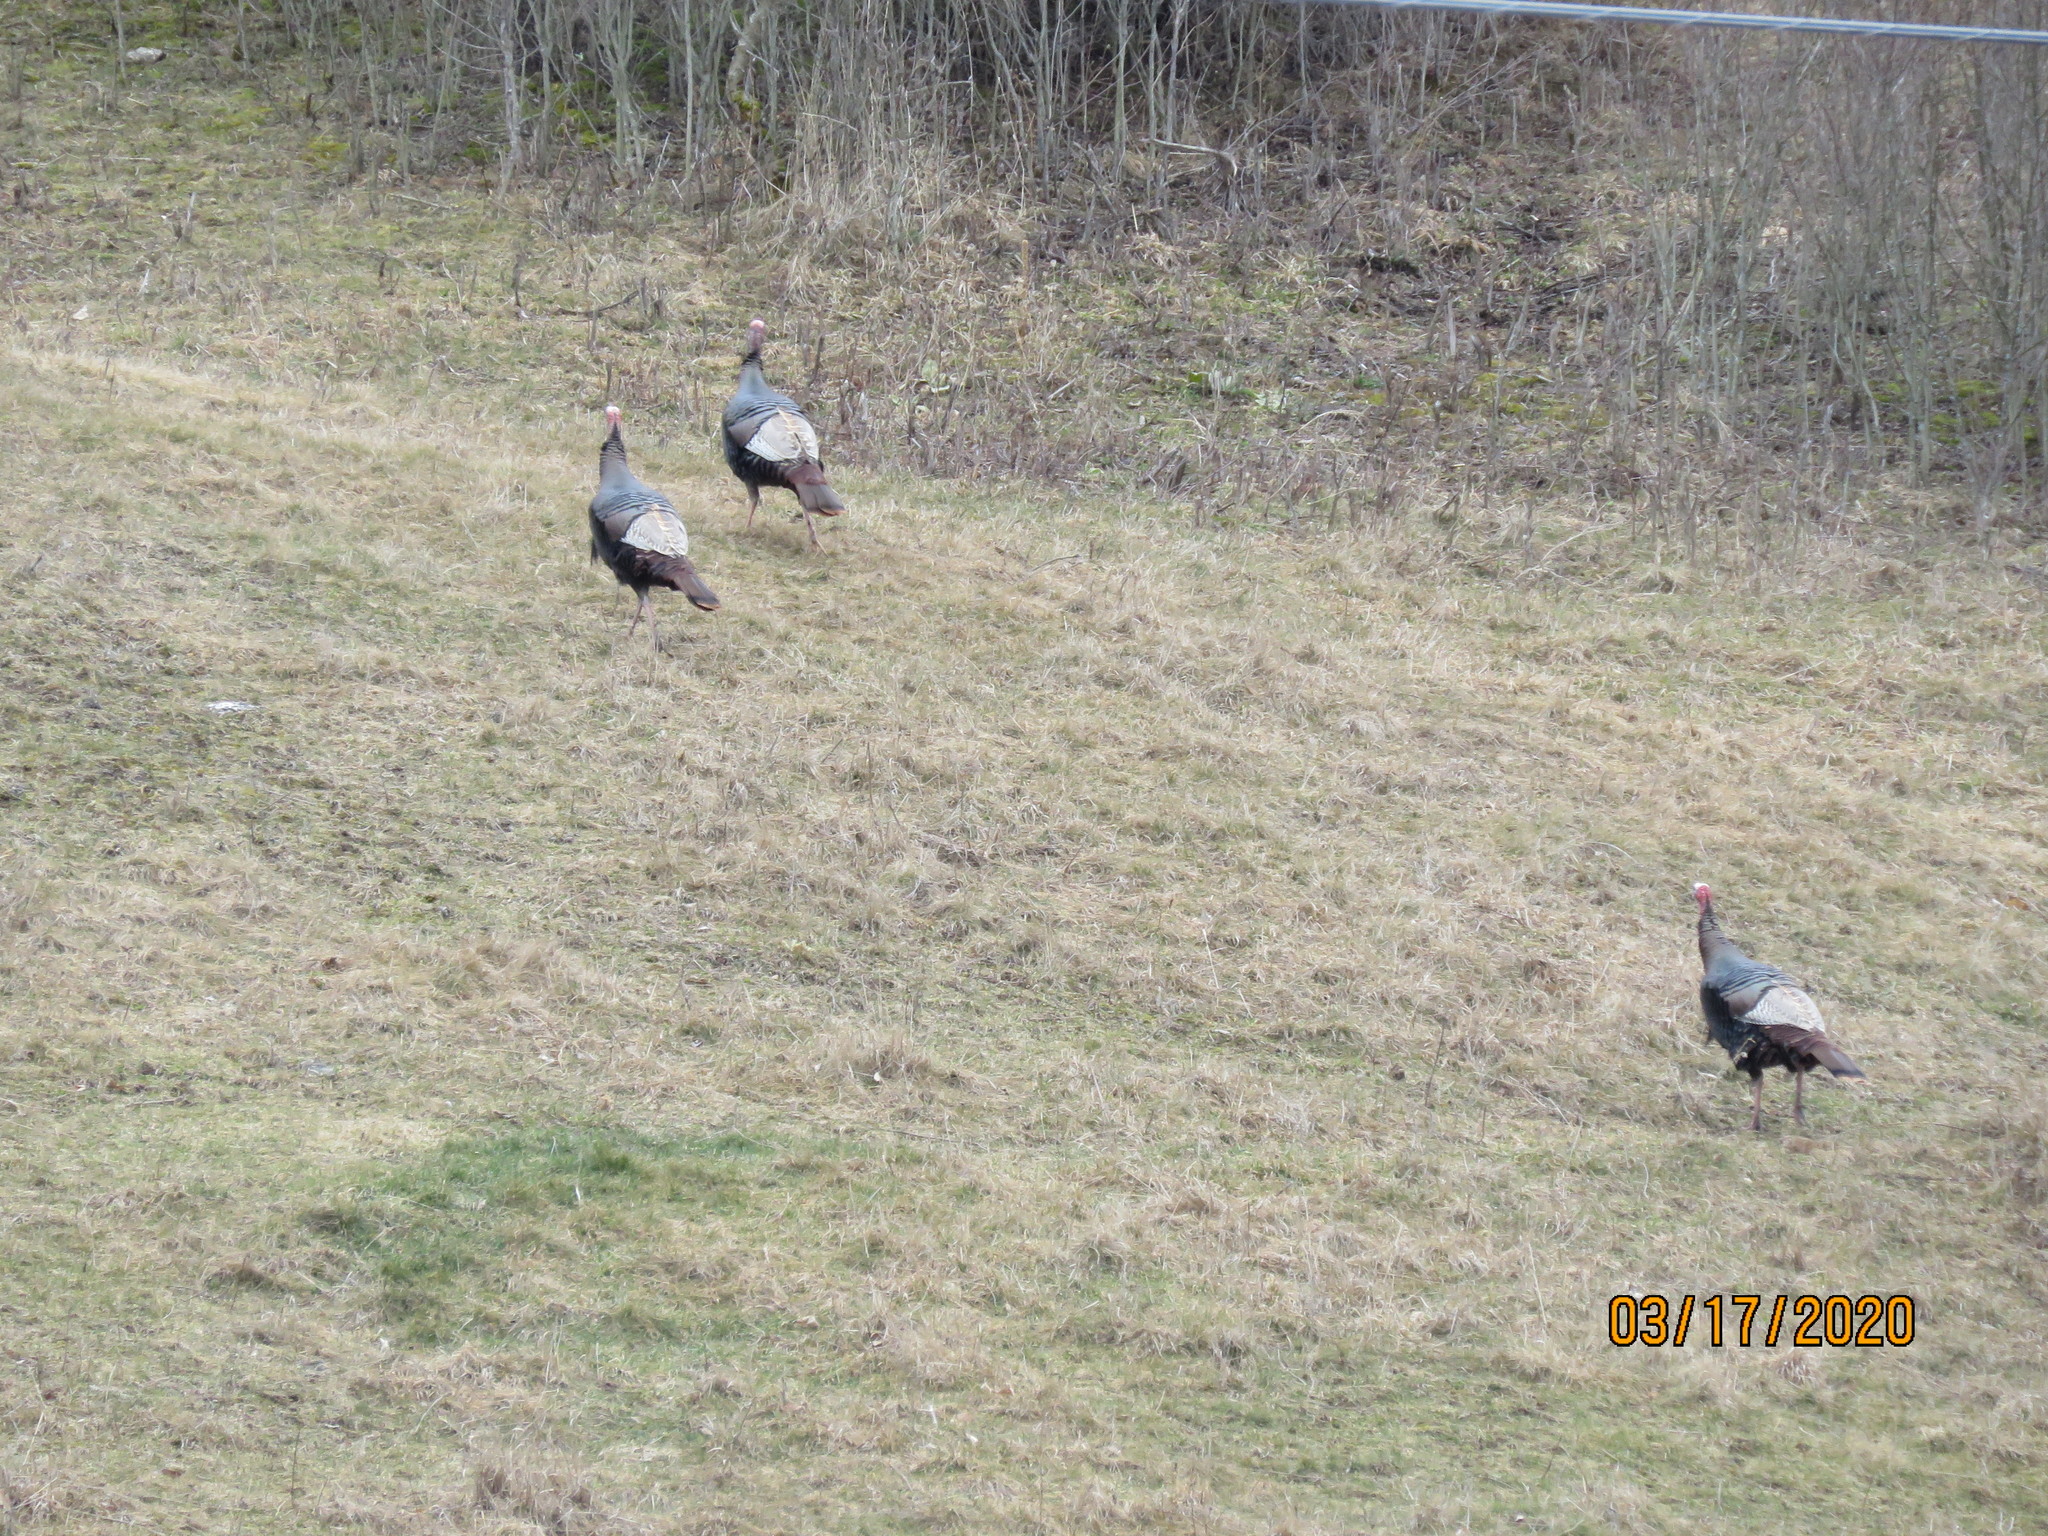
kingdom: Animalia
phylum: Chordata
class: Aves
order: Galliformes
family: Phasianidae
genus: Meleagris
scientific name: Meleagris gallopavo
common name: Wild turkey
